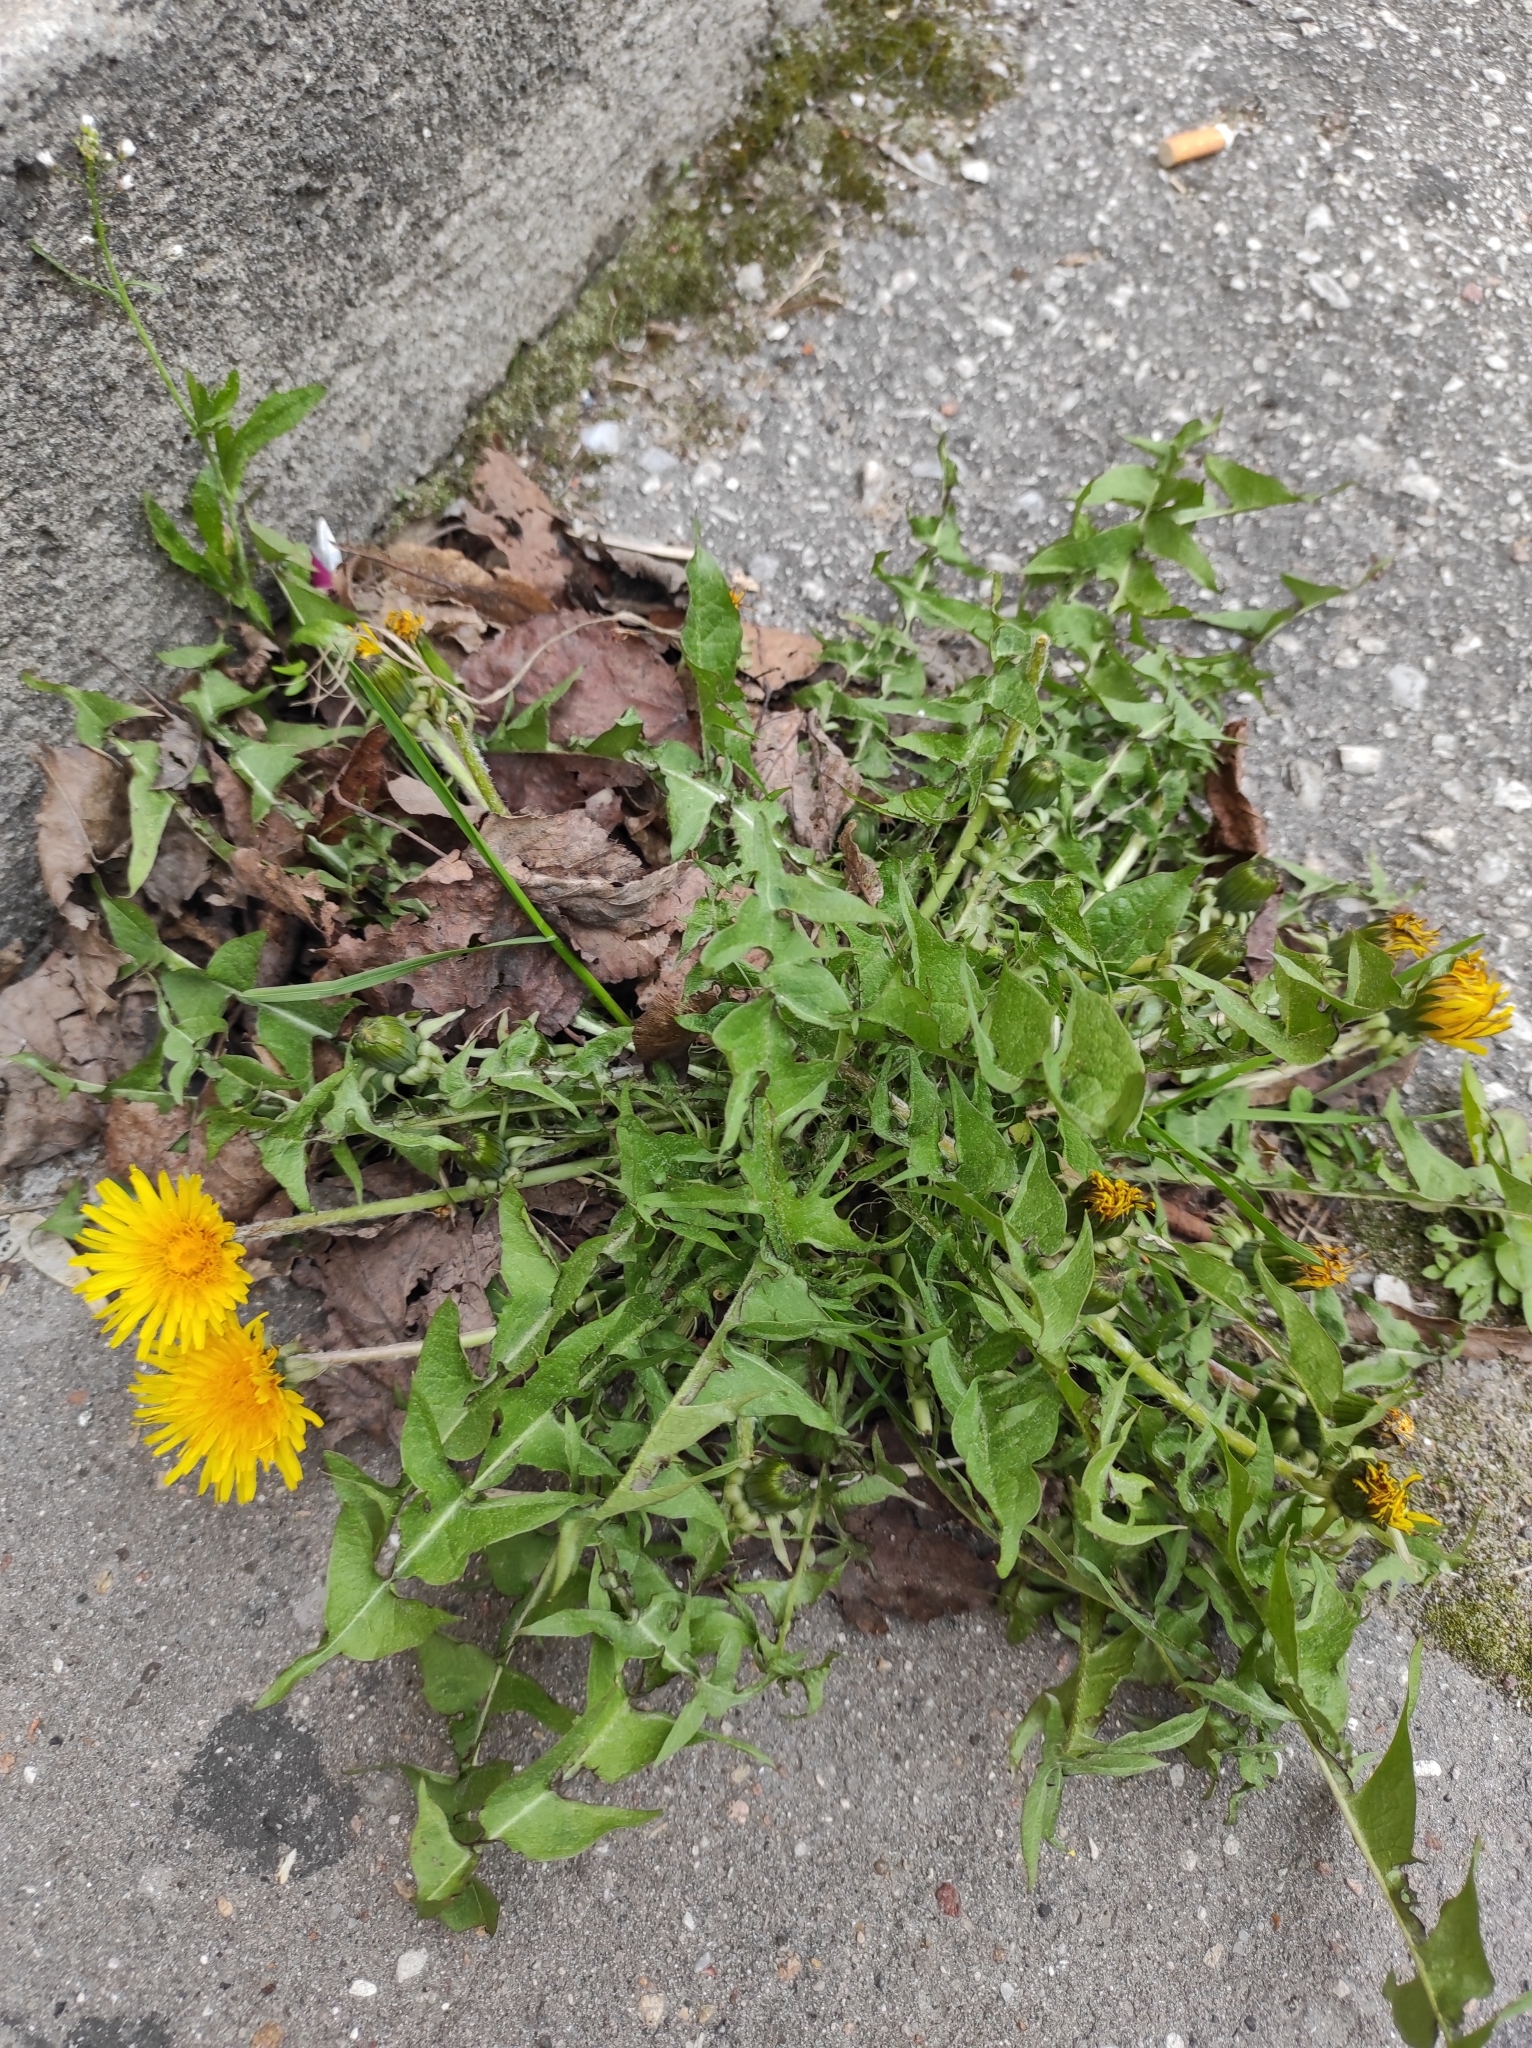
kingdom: Plantae
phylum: Tracheophyta
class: Magnoliopsida
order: Asterales
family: Asteraceae
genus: Taraxacum
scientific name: Taraxacum officinale
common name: Common dandelion
